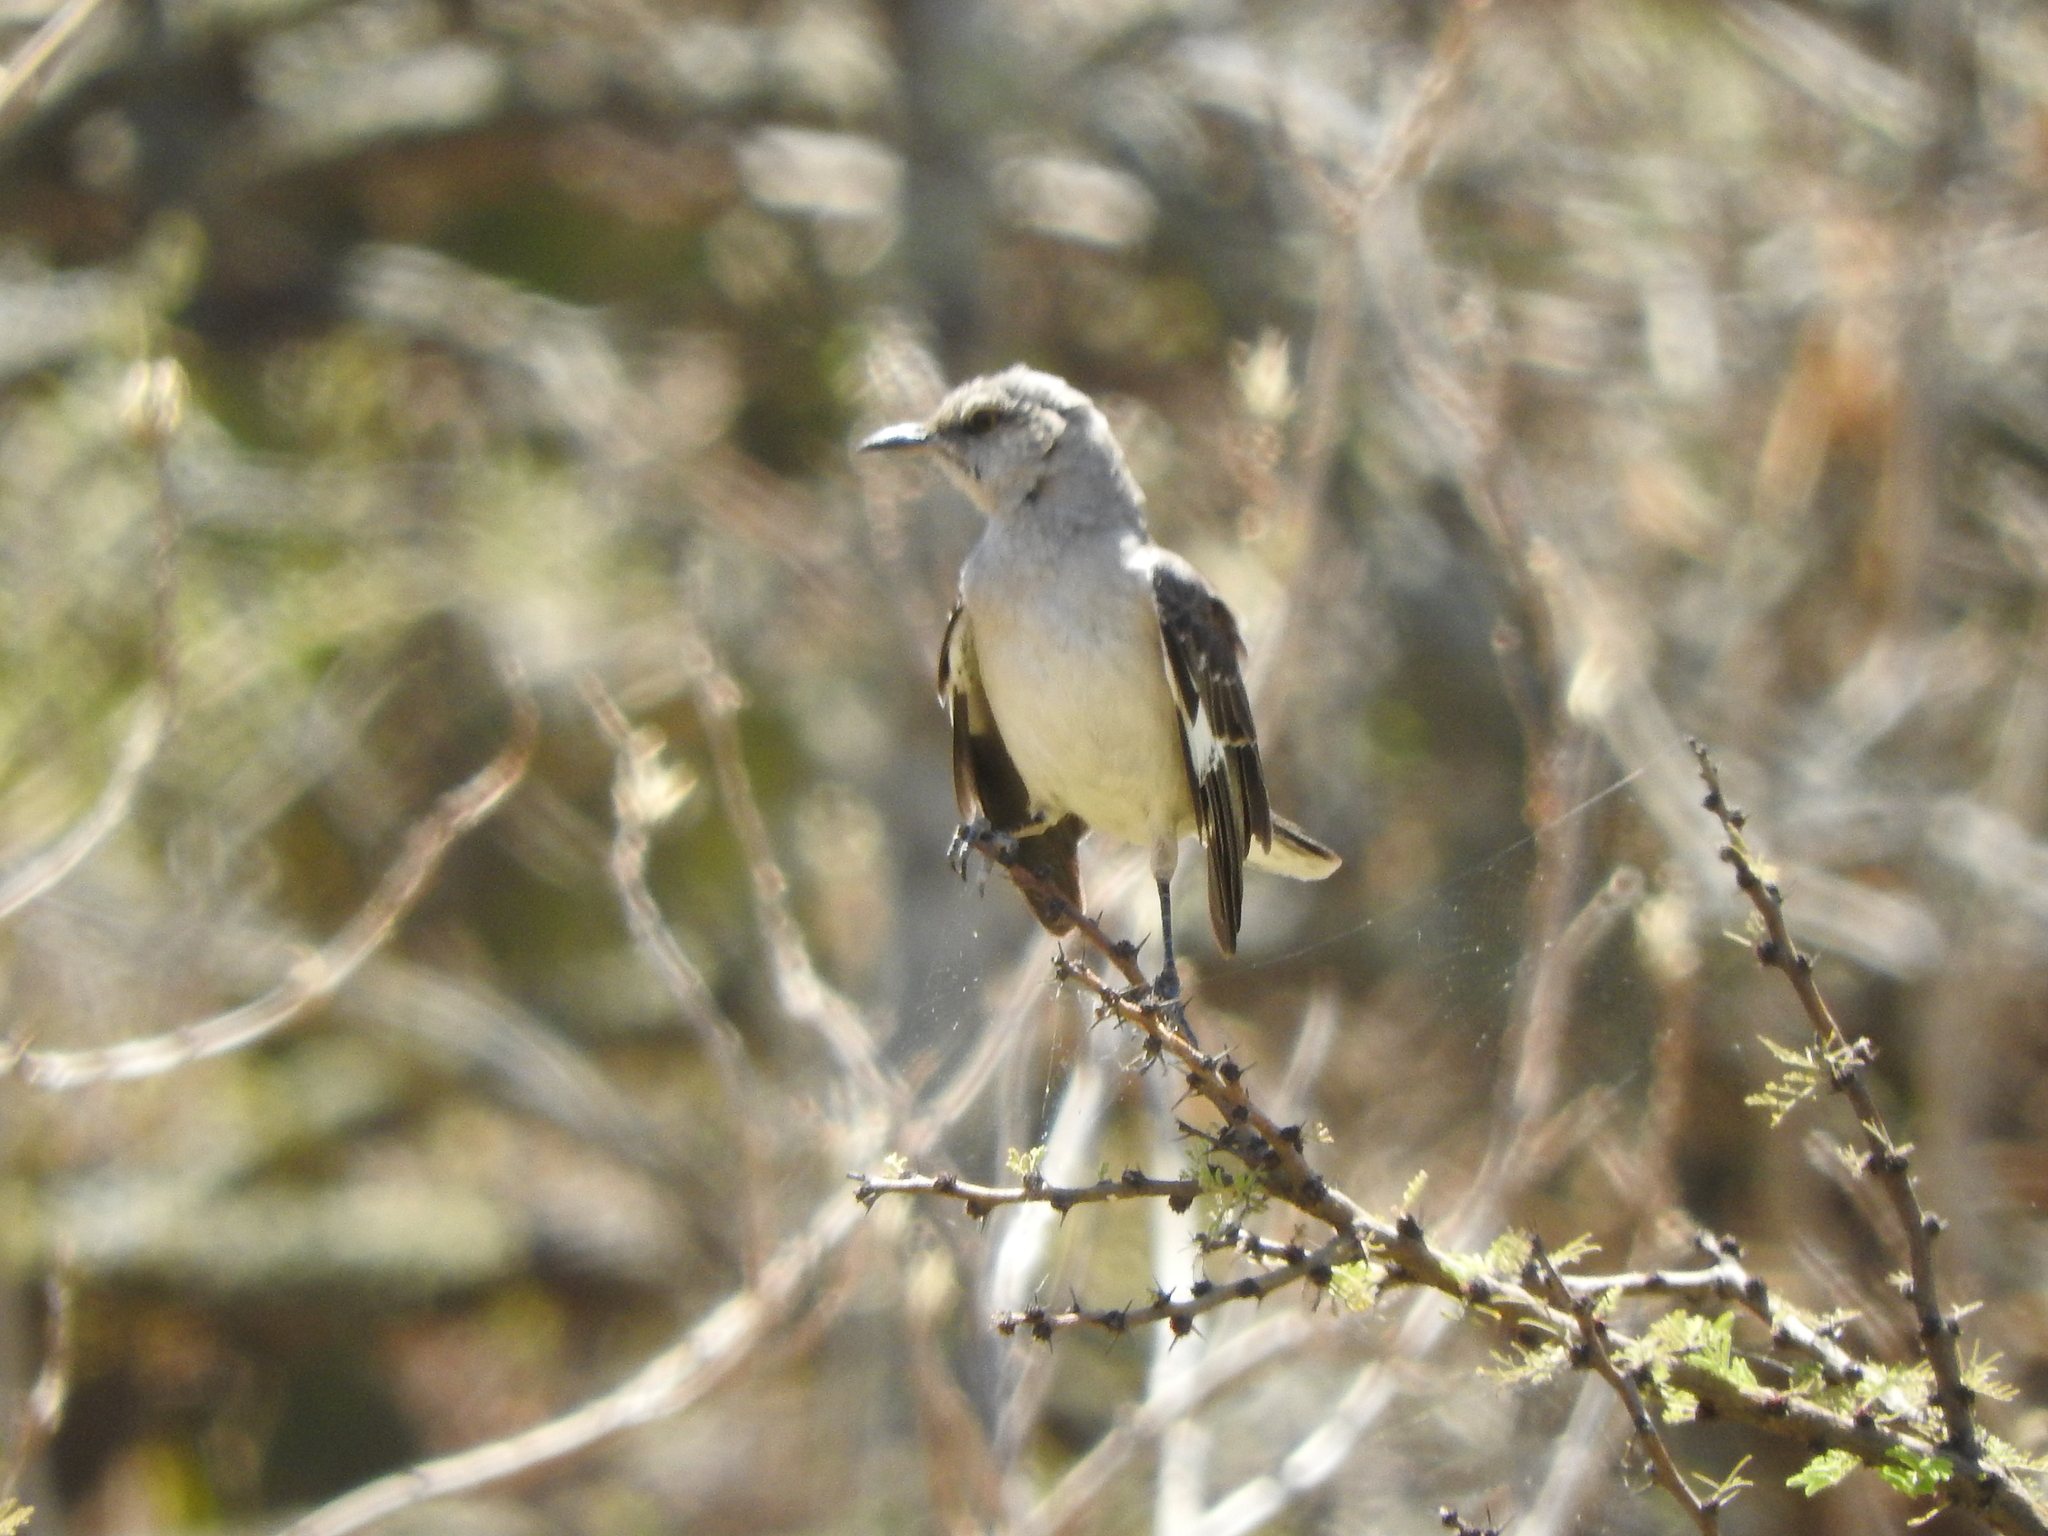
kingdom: Animalia
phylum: Chordata
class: Aves
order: Passeriformes
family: Mimidae
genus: Mimus
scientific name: Mimus polyglottos
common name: Northern mockingbird
